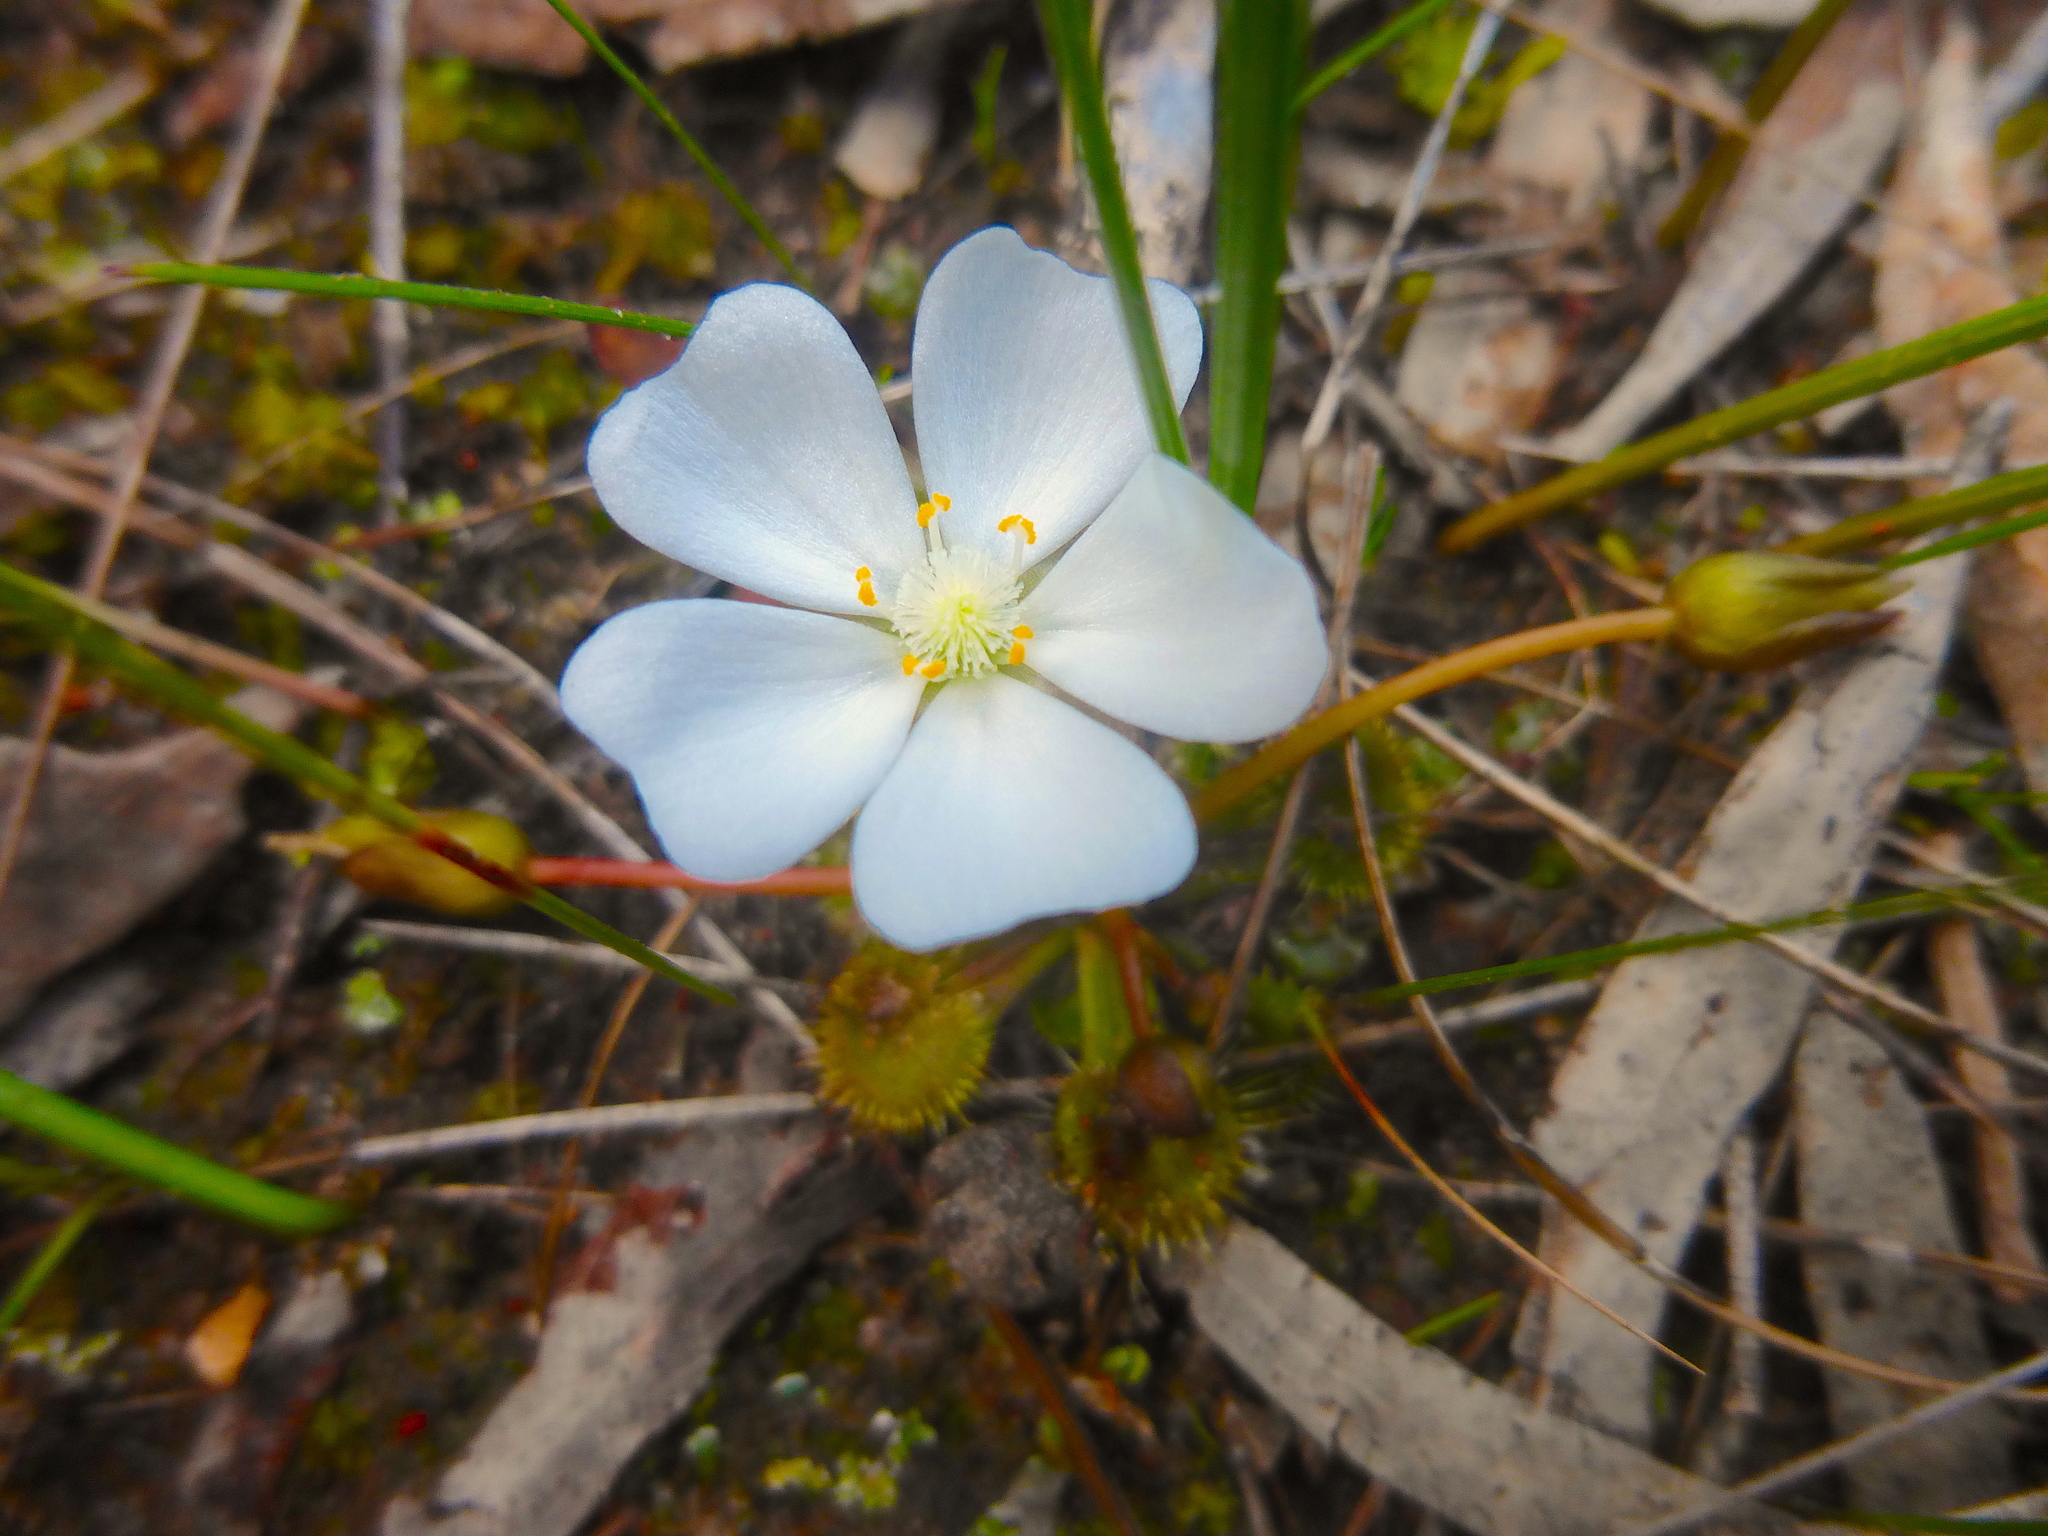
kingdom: Plantae
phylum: Tracheophyta
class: Magnoliopsida
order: Caryophyllales
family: Droseraceae
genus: Drosera
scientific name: Drosera schmutzii
